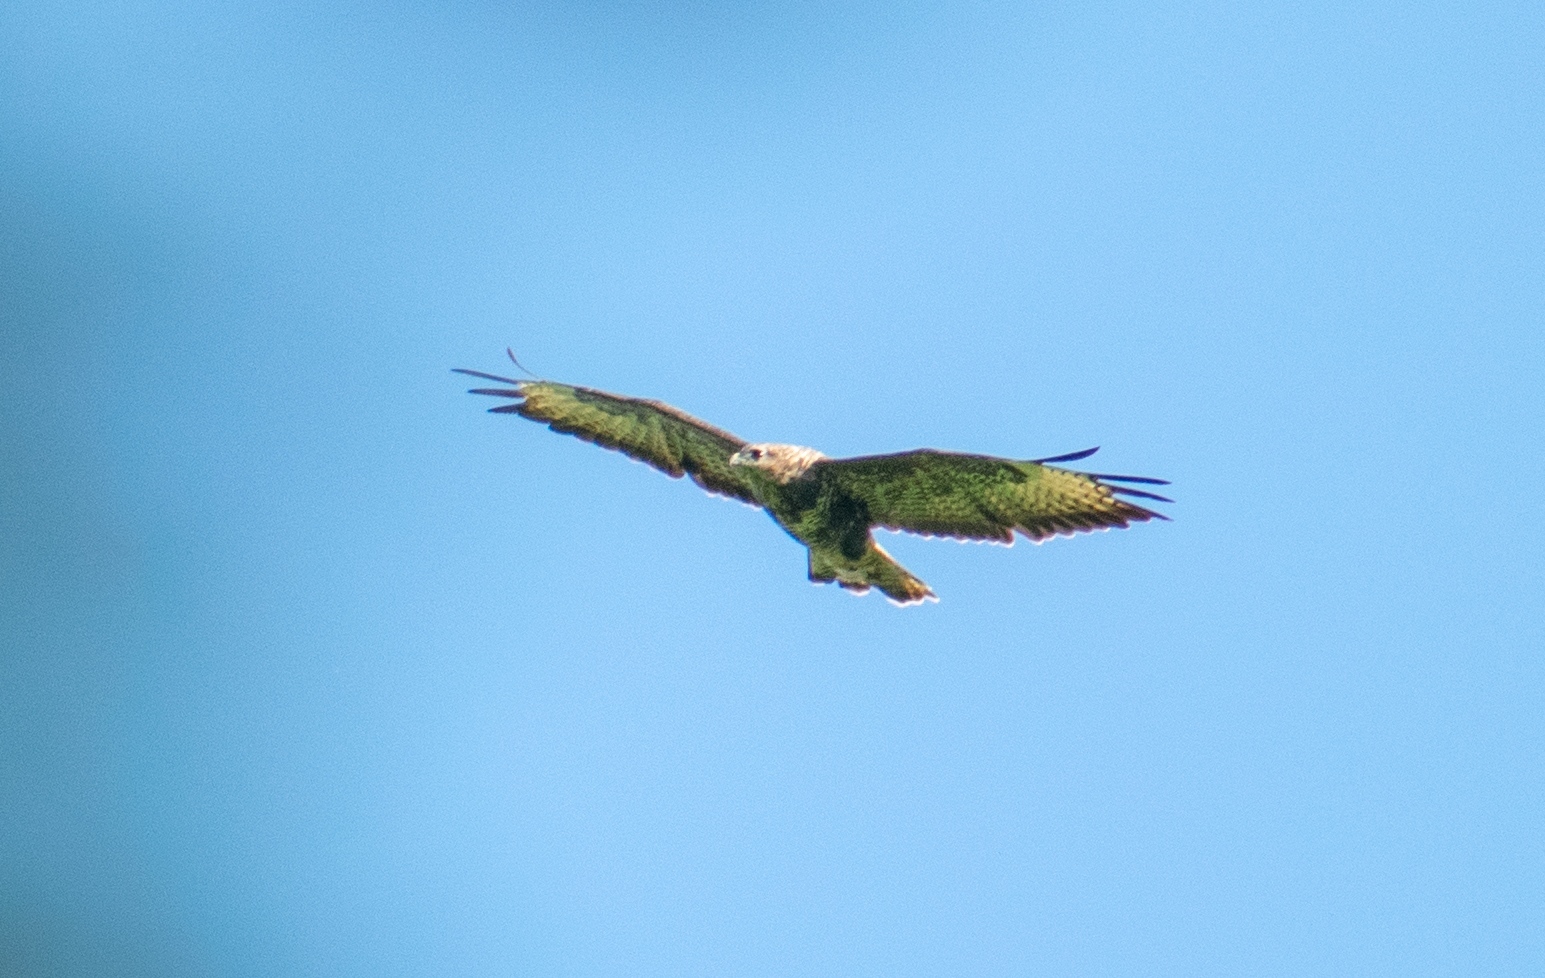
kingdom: Animalia
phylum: Chordata
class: Aves
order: Accipitriformes
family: Accipitridae
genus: Buteo
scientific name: Buteo buteo
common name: Common buzzard
